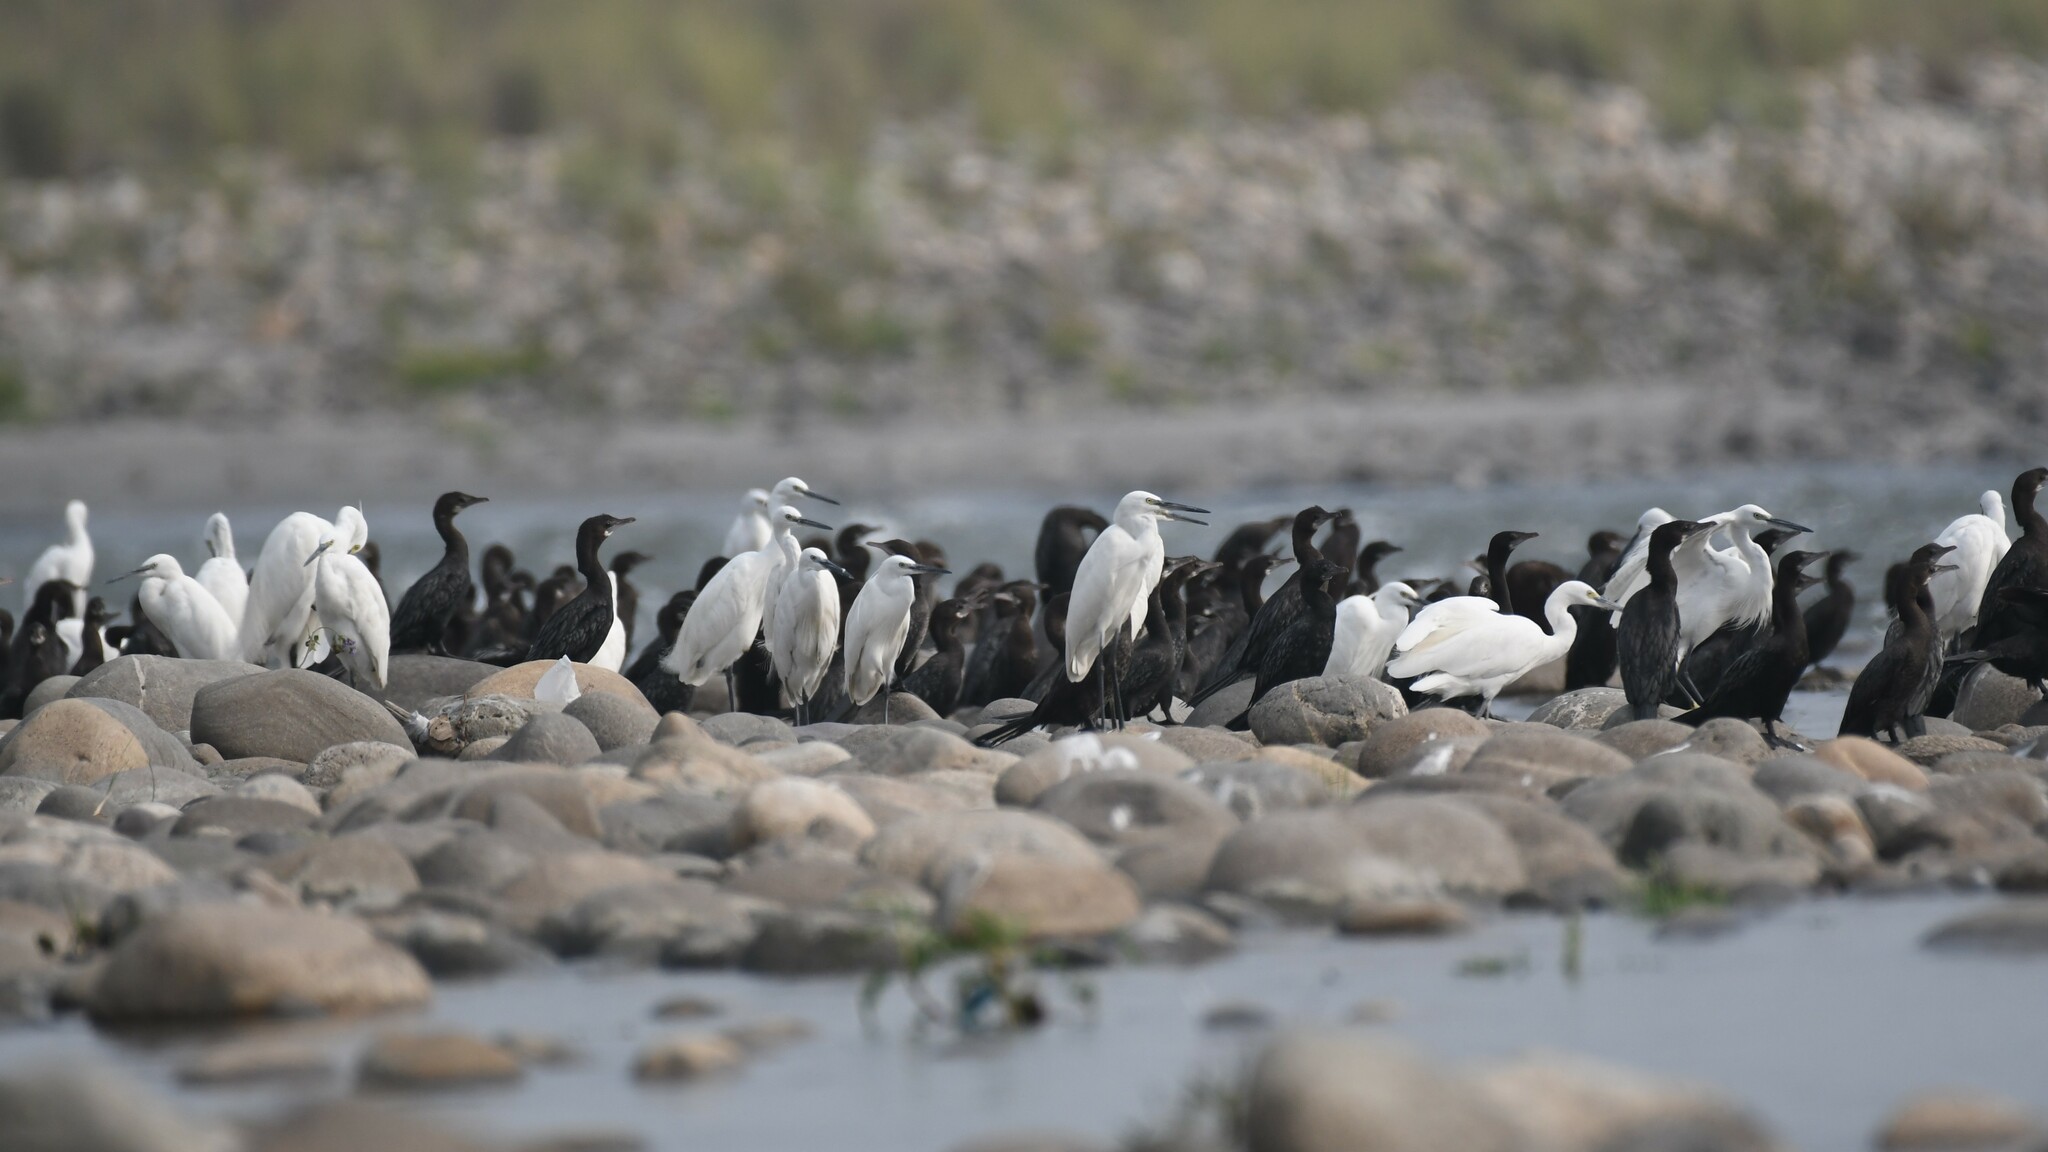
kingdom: Animalia
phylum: Chordata
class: Aves
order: Pelecaniformes
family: Ardeidae
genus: Egretta
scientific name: Egretta garzetta
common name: Little egret
